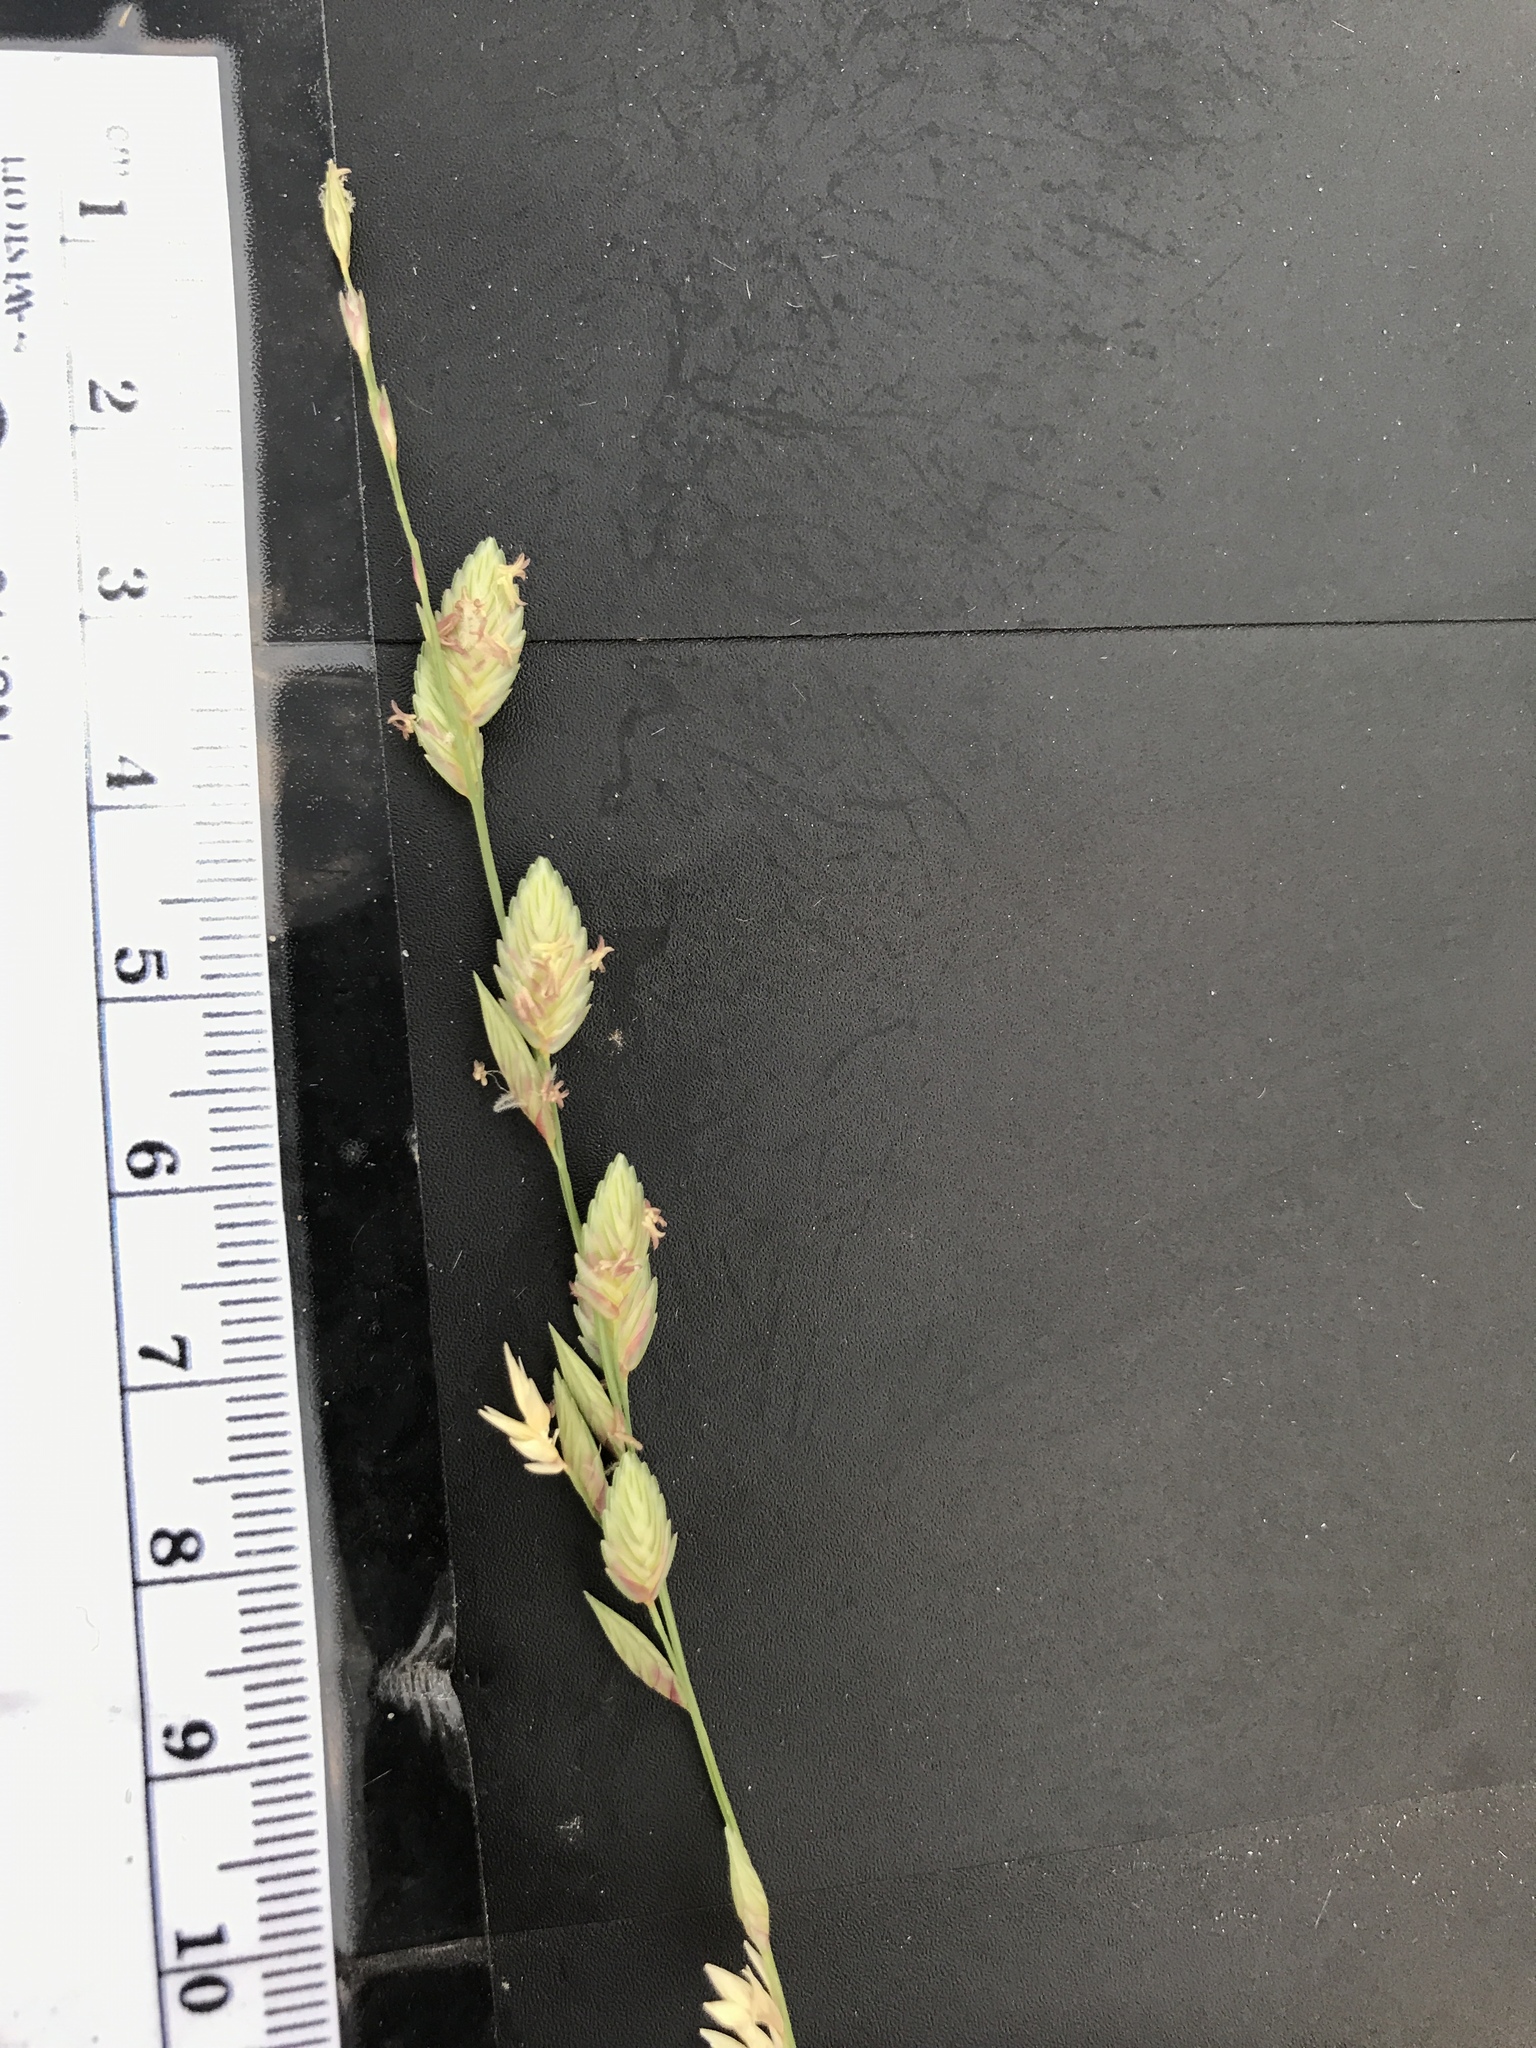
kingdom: Plantae
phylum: Tracheophyta
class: Liliopsida
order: Poales
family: Poaceae
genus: Eragrostis
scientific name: Eragrostis superba
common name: Wilman lovegrass
